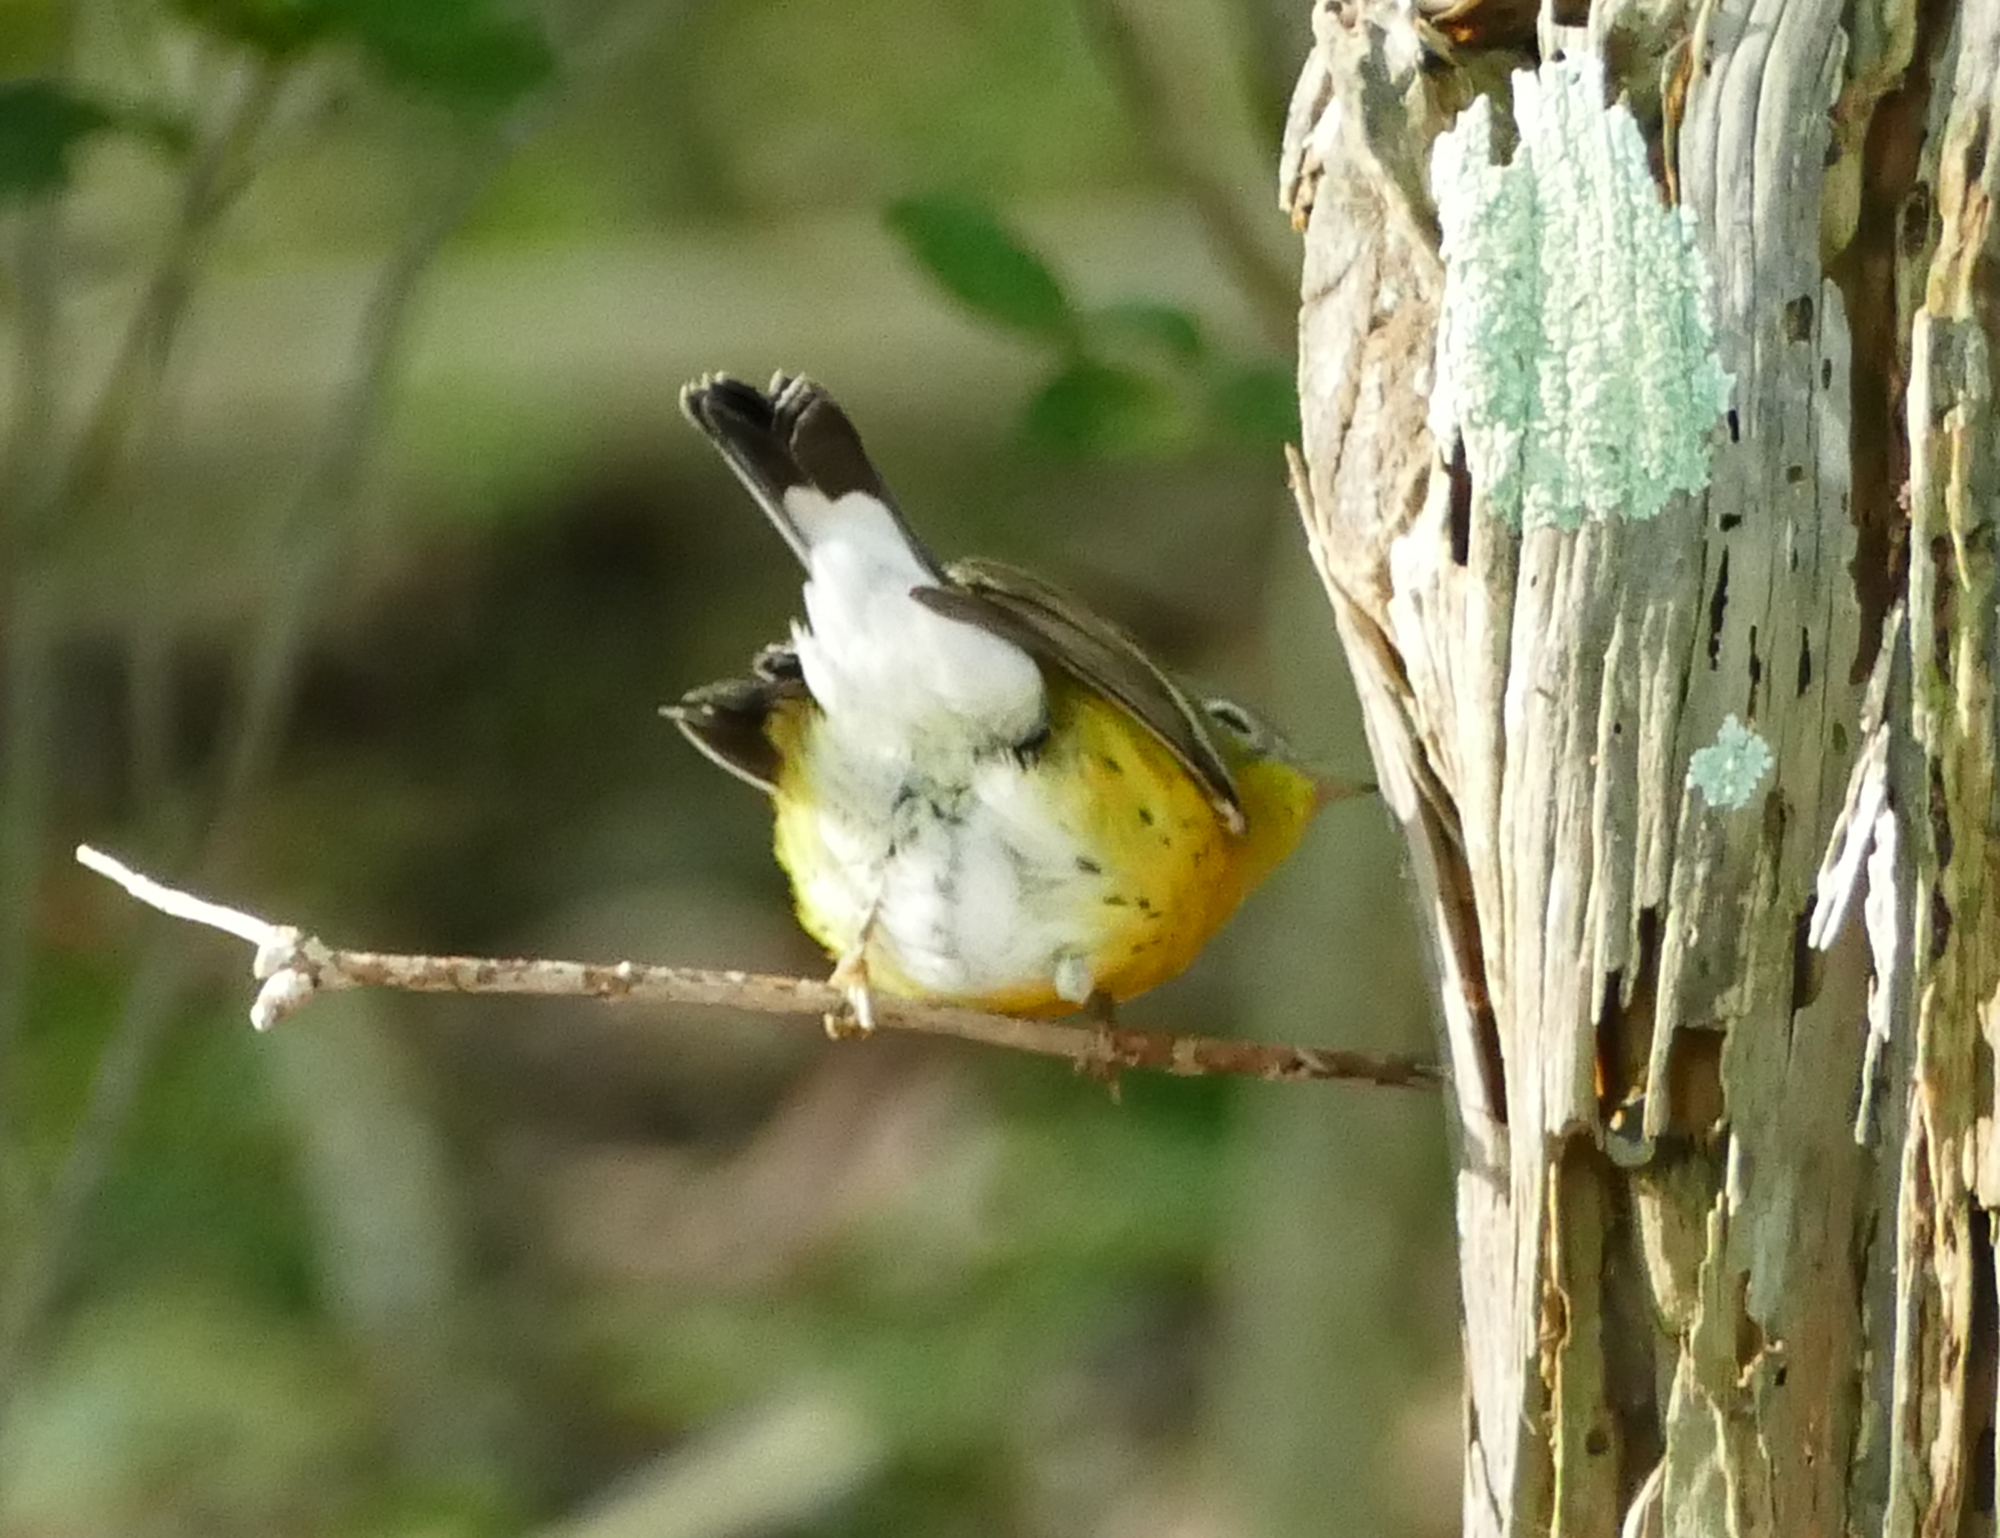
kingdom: Animalia
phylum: Chordata
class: Aves
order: Passeriformes
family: Parulidae
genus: Setophaga
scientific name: Setophaga magnolia
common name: Magnolia warbler
